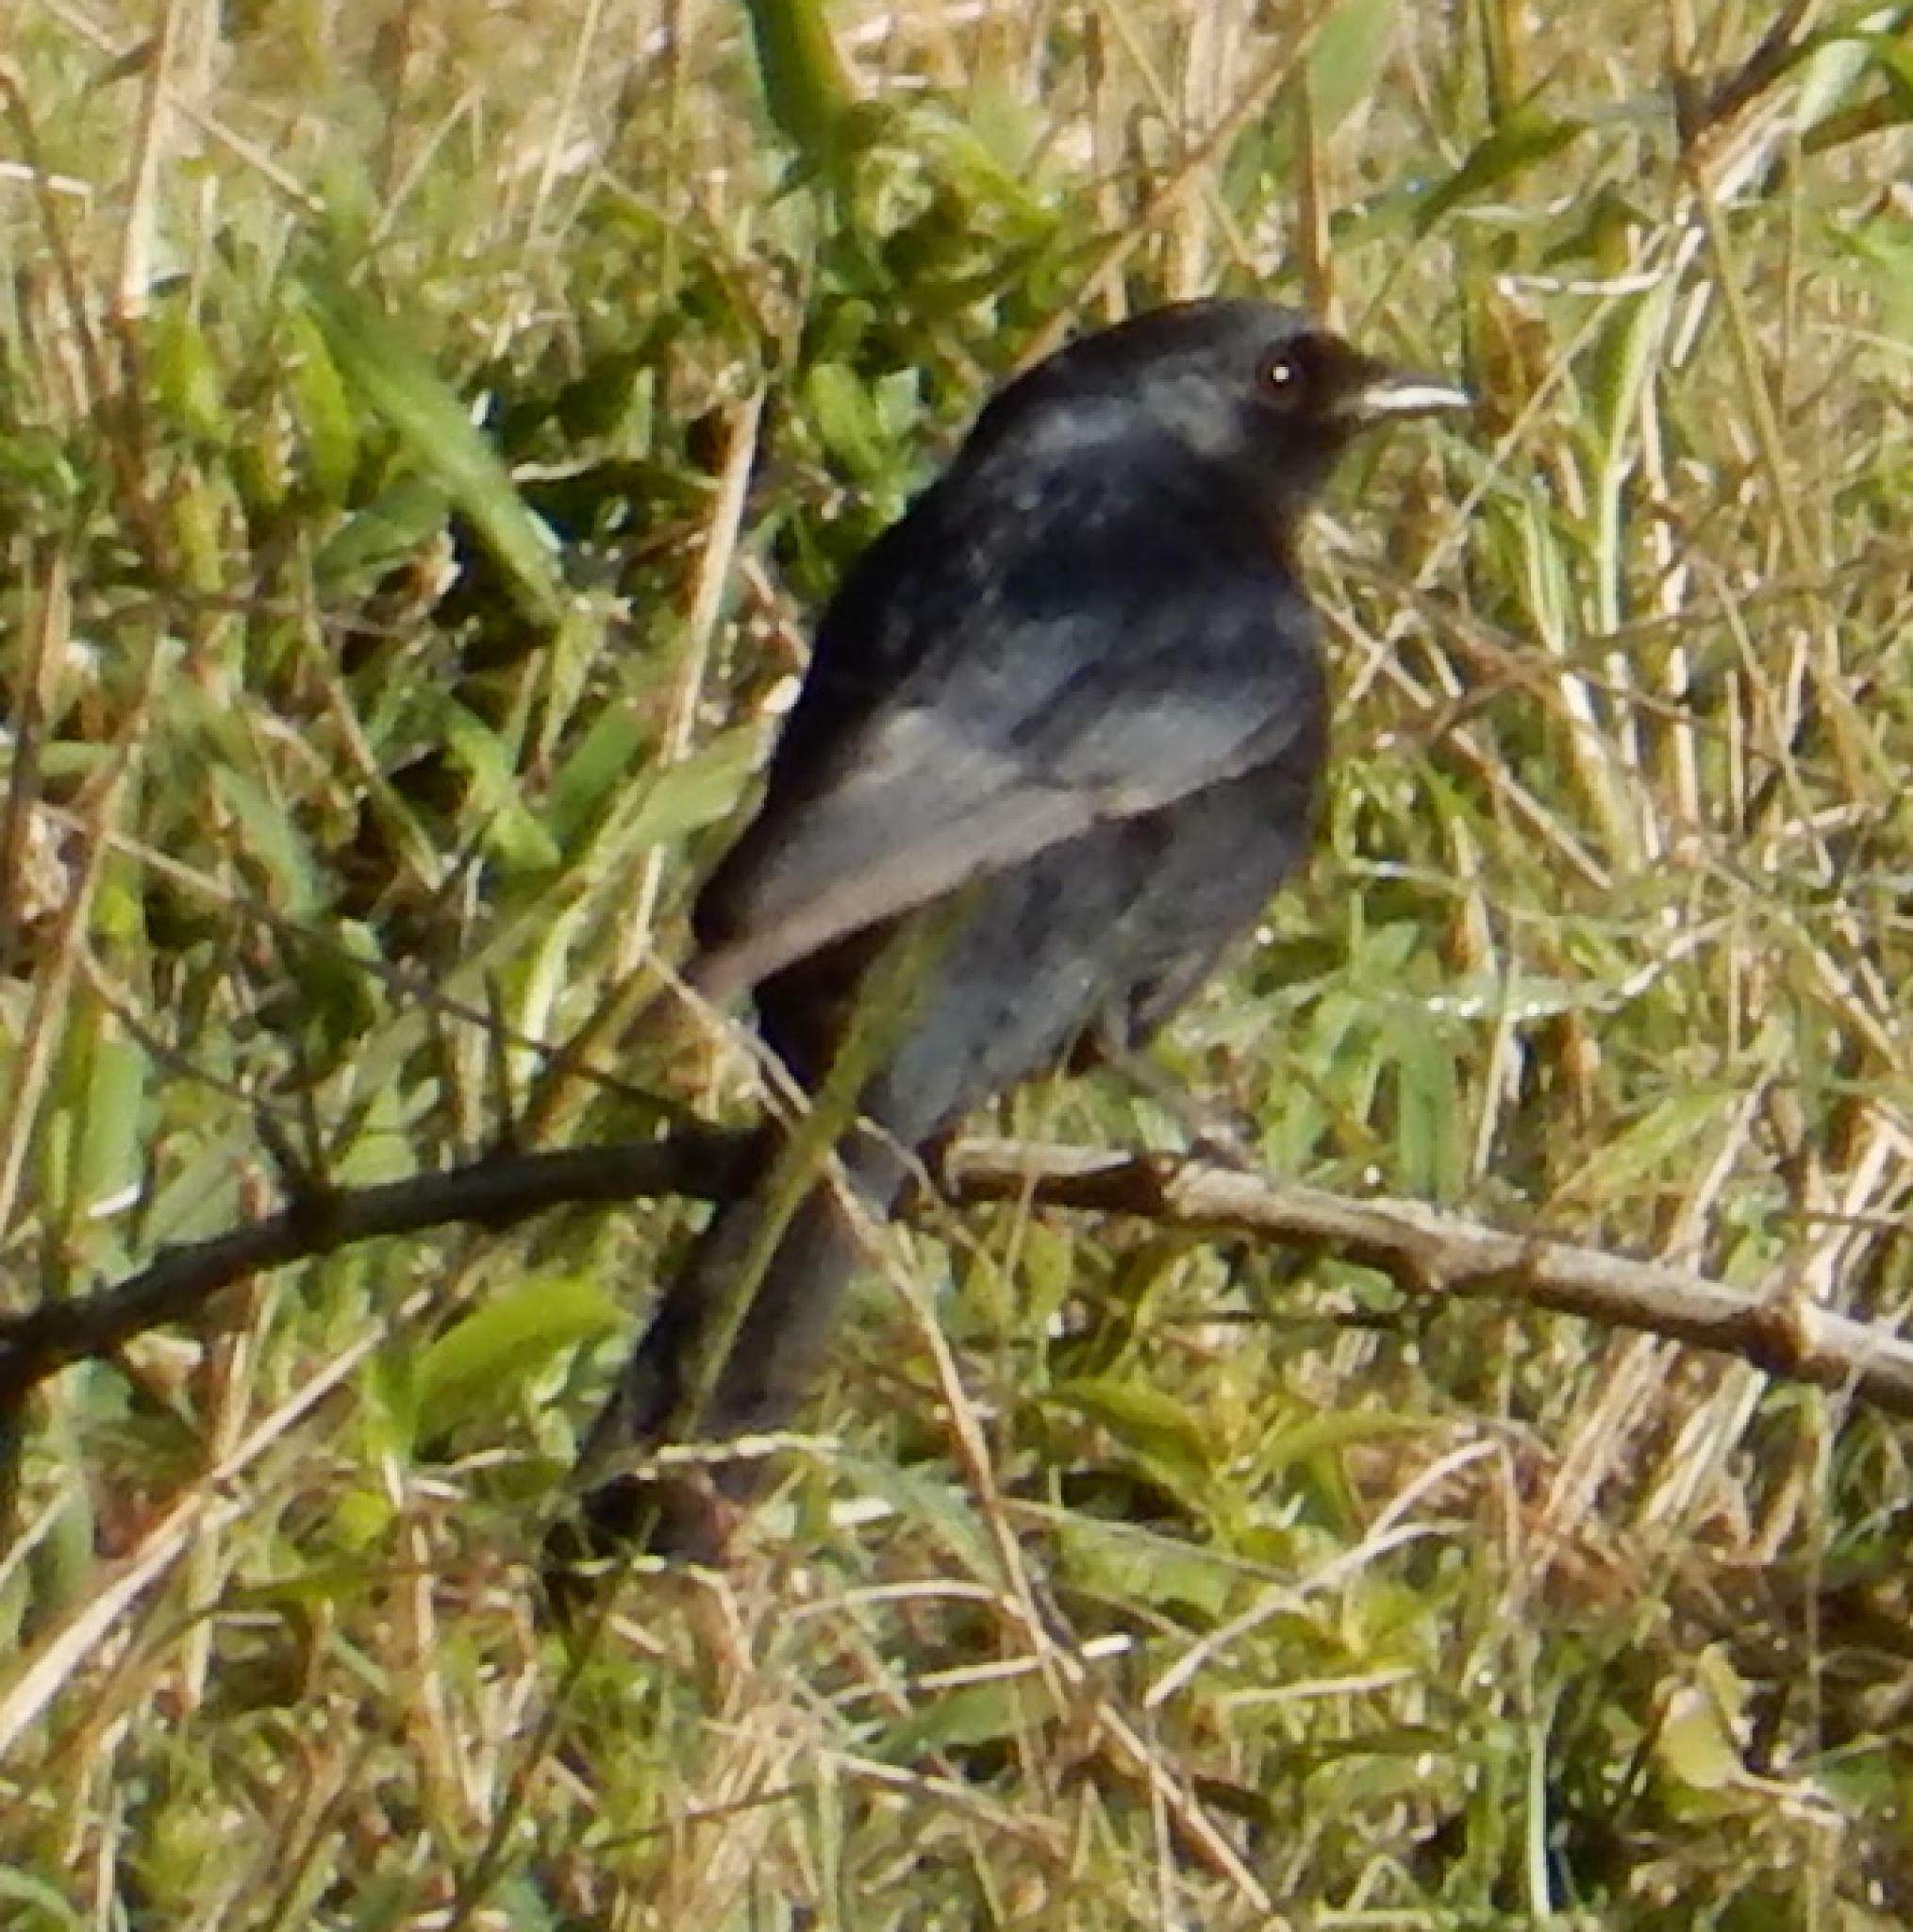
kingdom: Animalia
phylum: Chordata
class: Aves
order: Passeriformes
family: Muscicapidae
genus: Melaenornis
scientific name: Melaenornis pammelaina
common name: Southern black flycatcher
